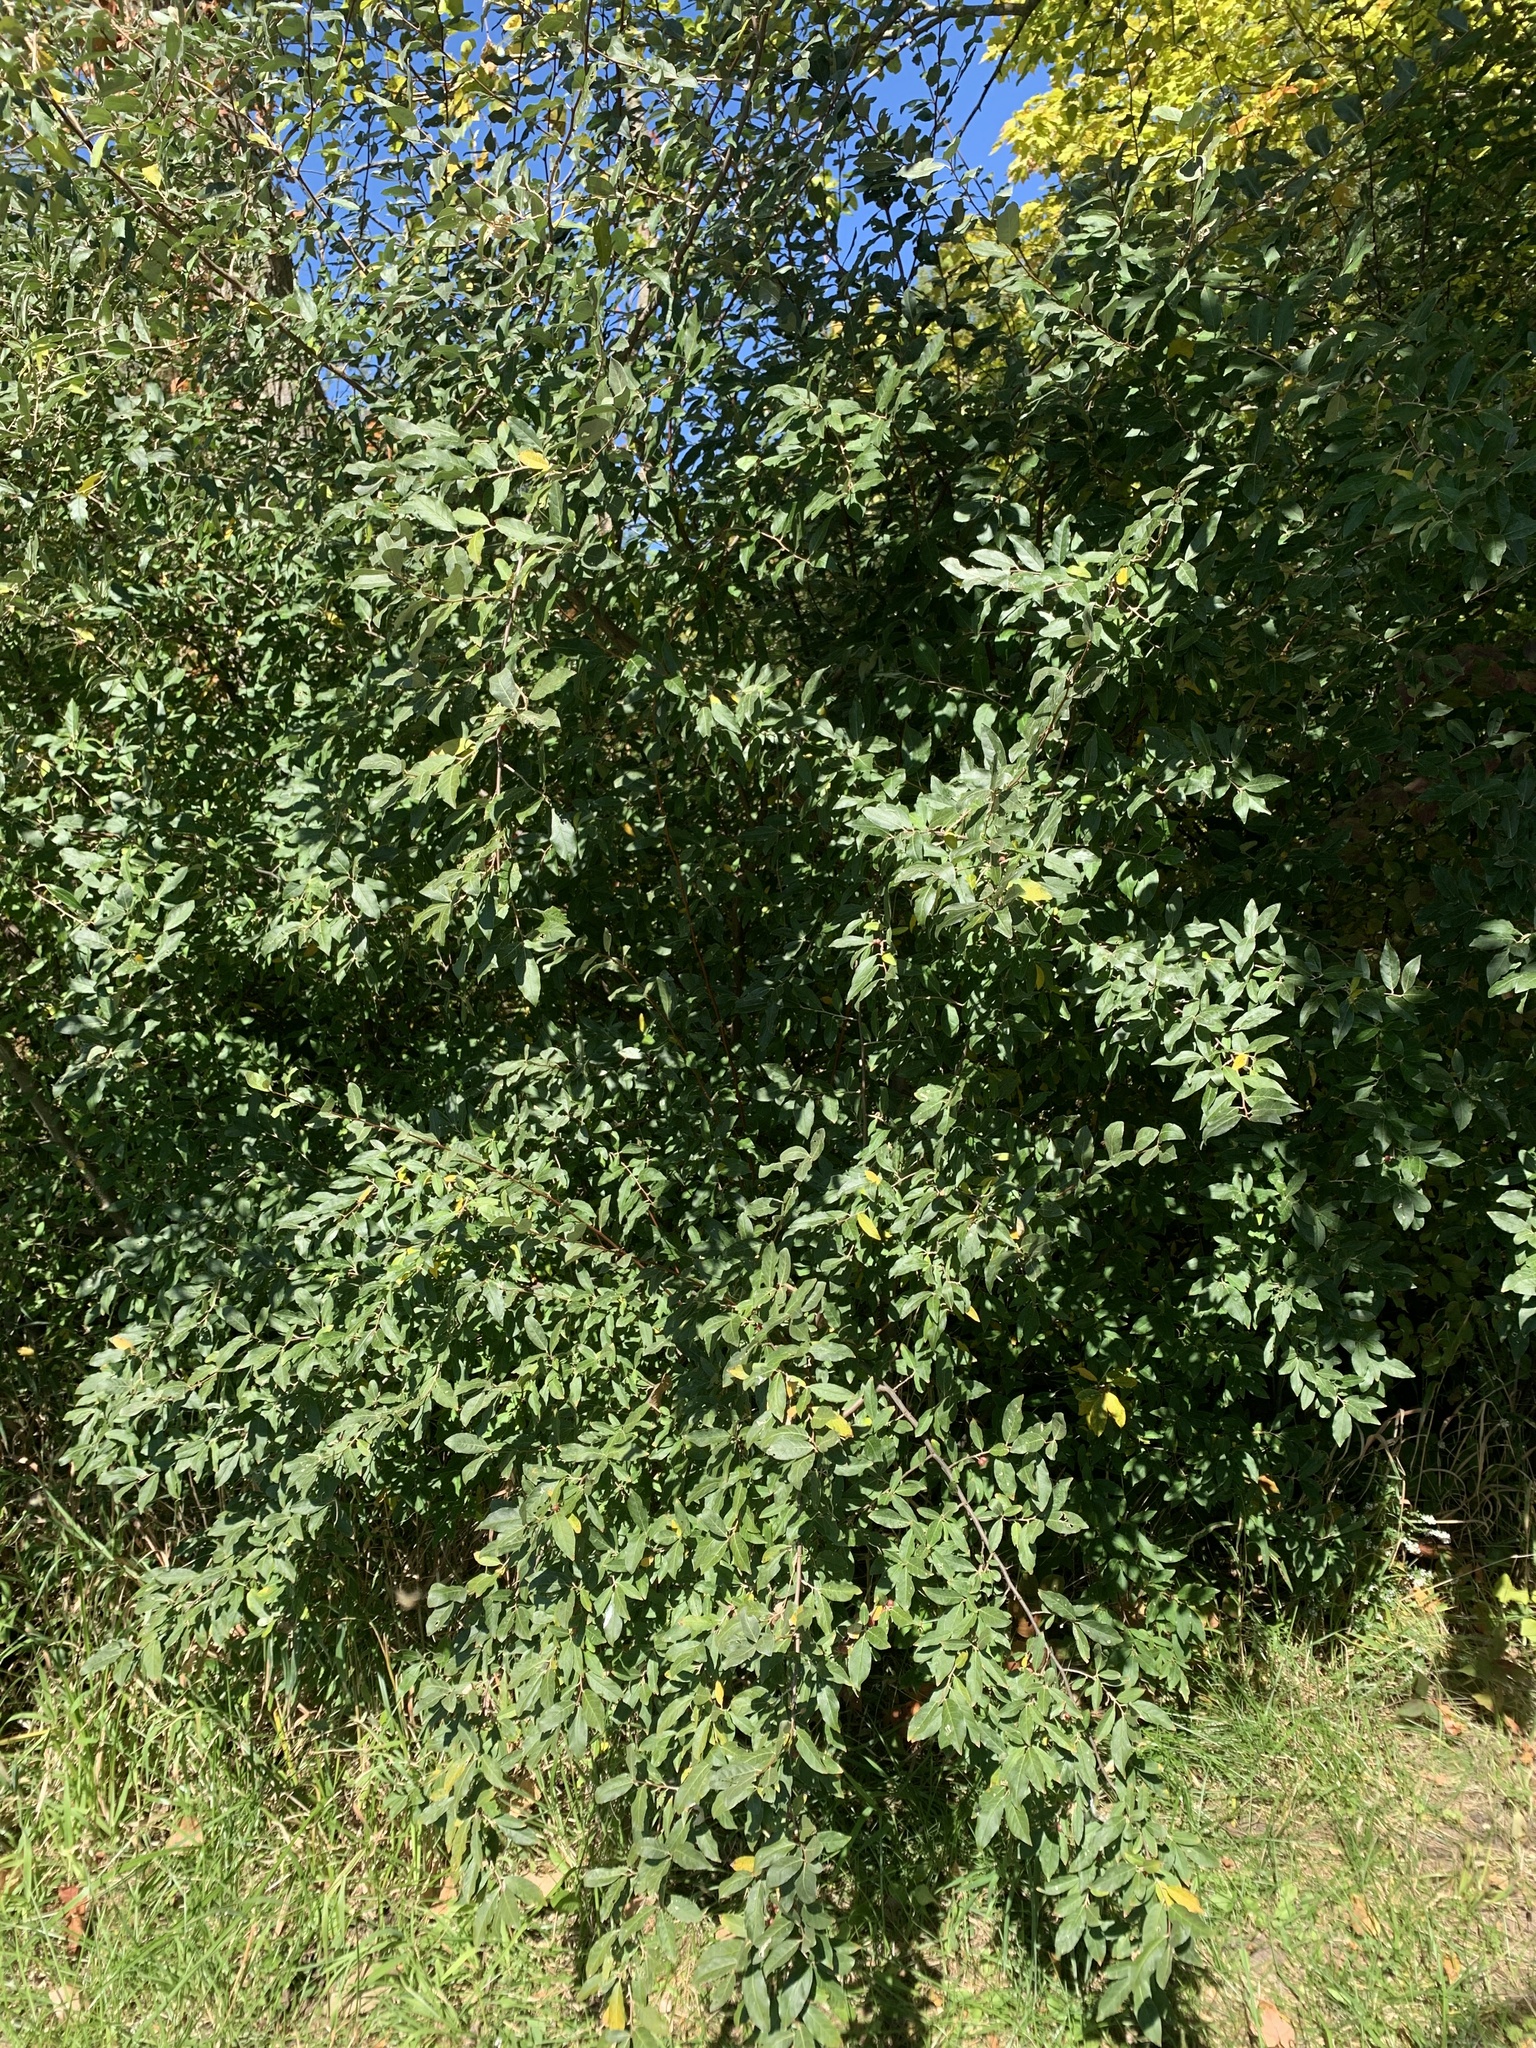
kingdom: Plantae
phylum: Tracheophyta
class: Magnoliopsida
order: Rosales
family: Elaeagnaceae
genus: Elaeagnus
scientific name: Elaeagnus umbellata
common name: Autumn olive
